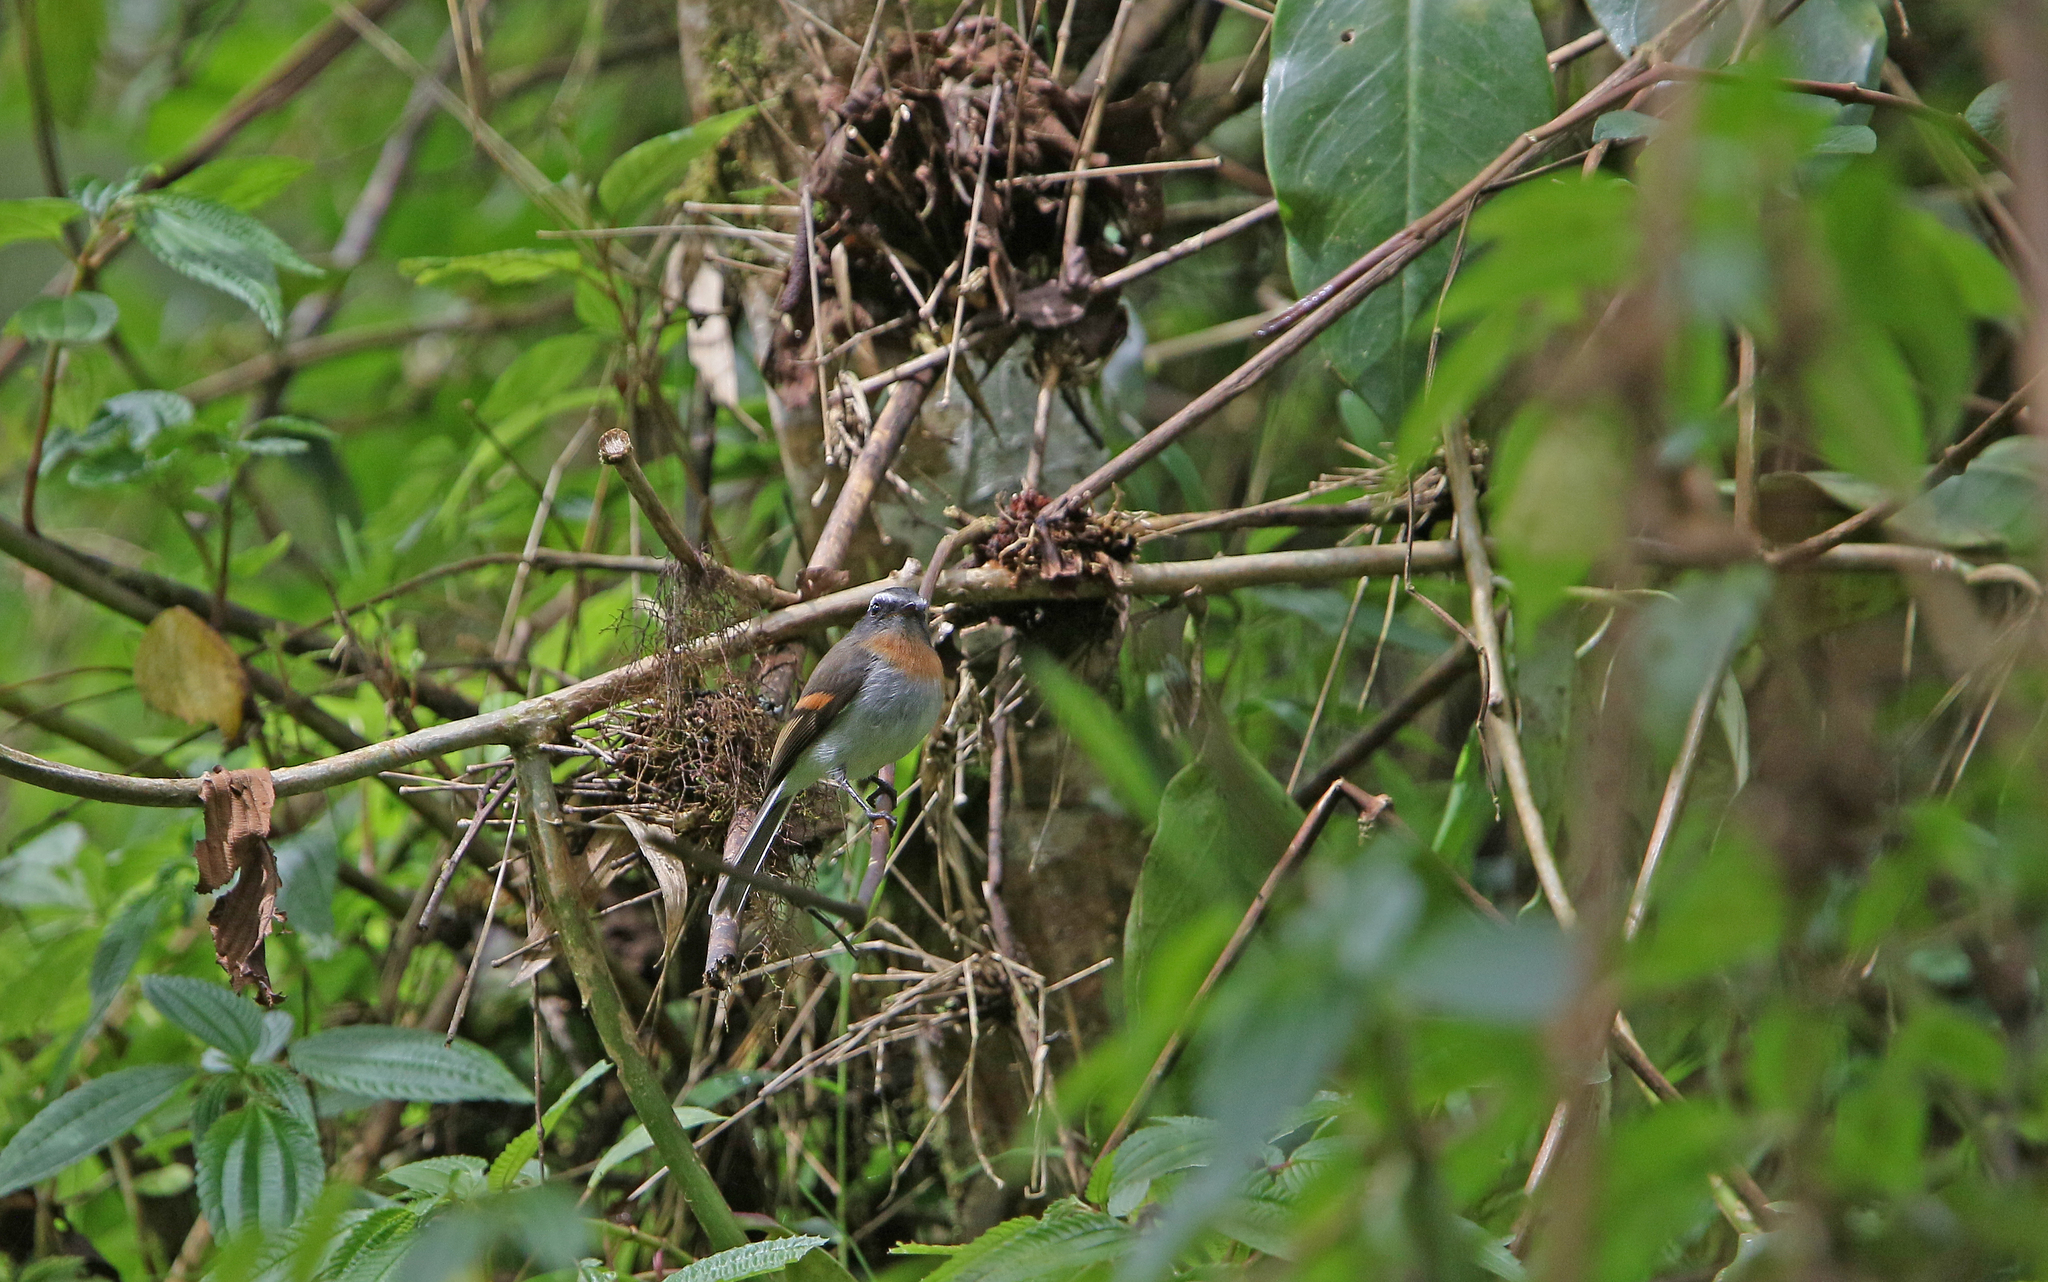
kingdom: Animalia
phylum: Chordata
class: Aves
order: Passeriformes
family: Tyrannidae
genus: Ochthoeca
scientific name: Ochthoeca rufipectoralis
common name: Rufous-breasted chat-tyrant
